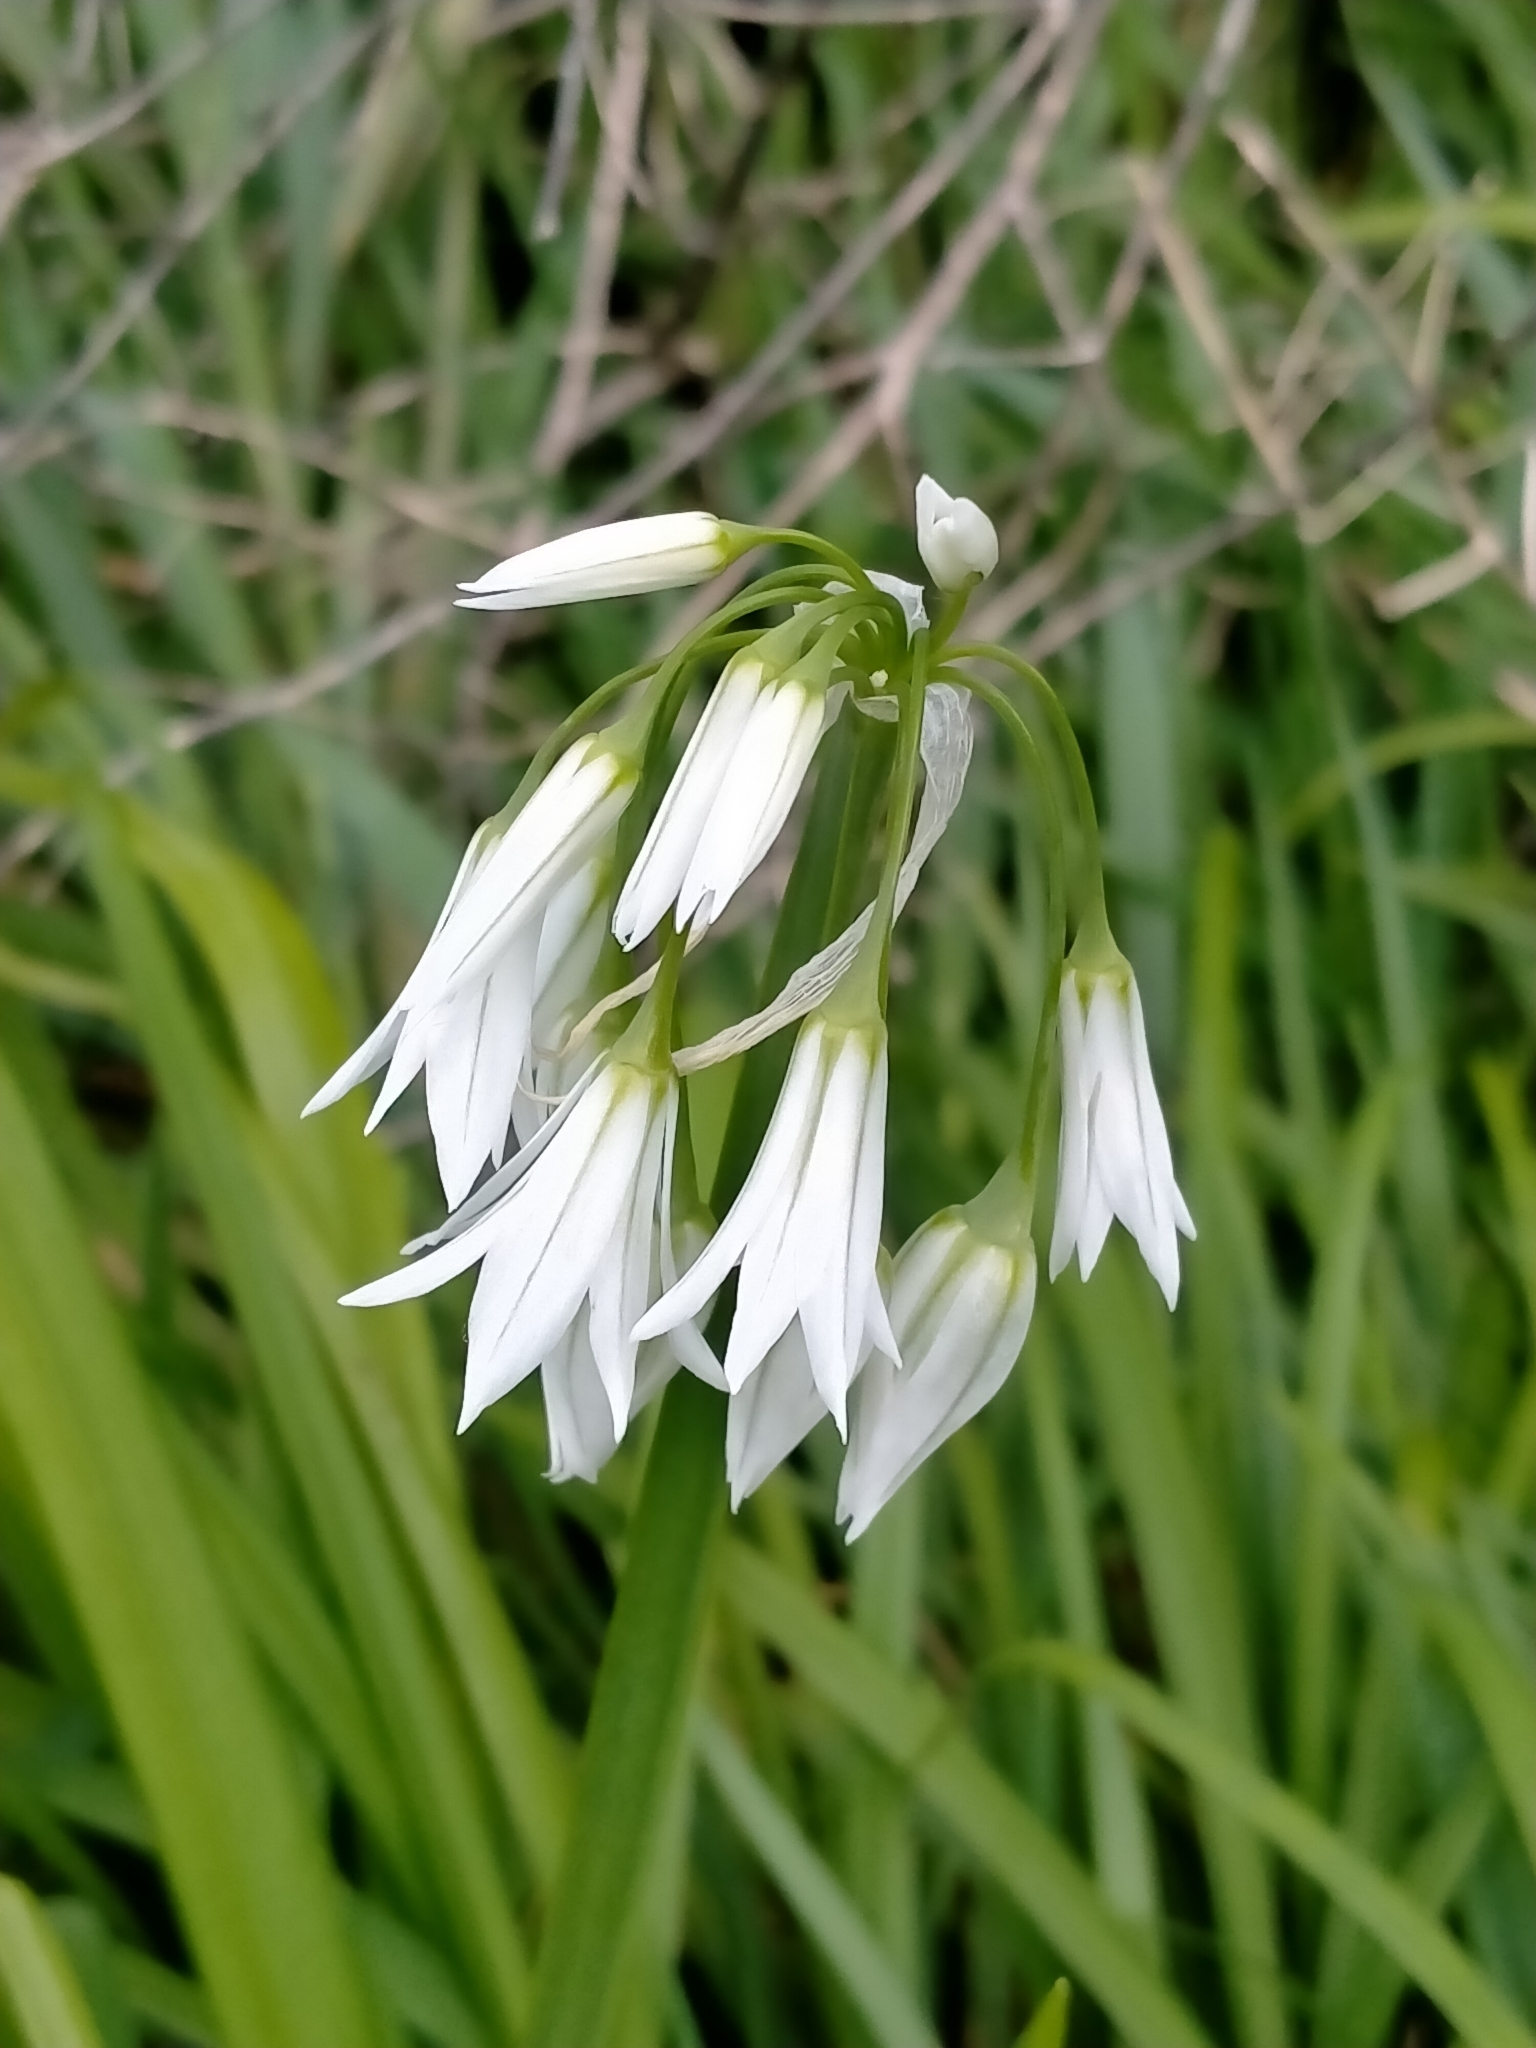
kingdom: Plantae
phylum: Tracheophyta
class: Liliopsida
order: Asparagales
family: Amaryllidaceae
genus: Allium
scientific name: Allium triquetrum
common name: Three-cornered garlic
